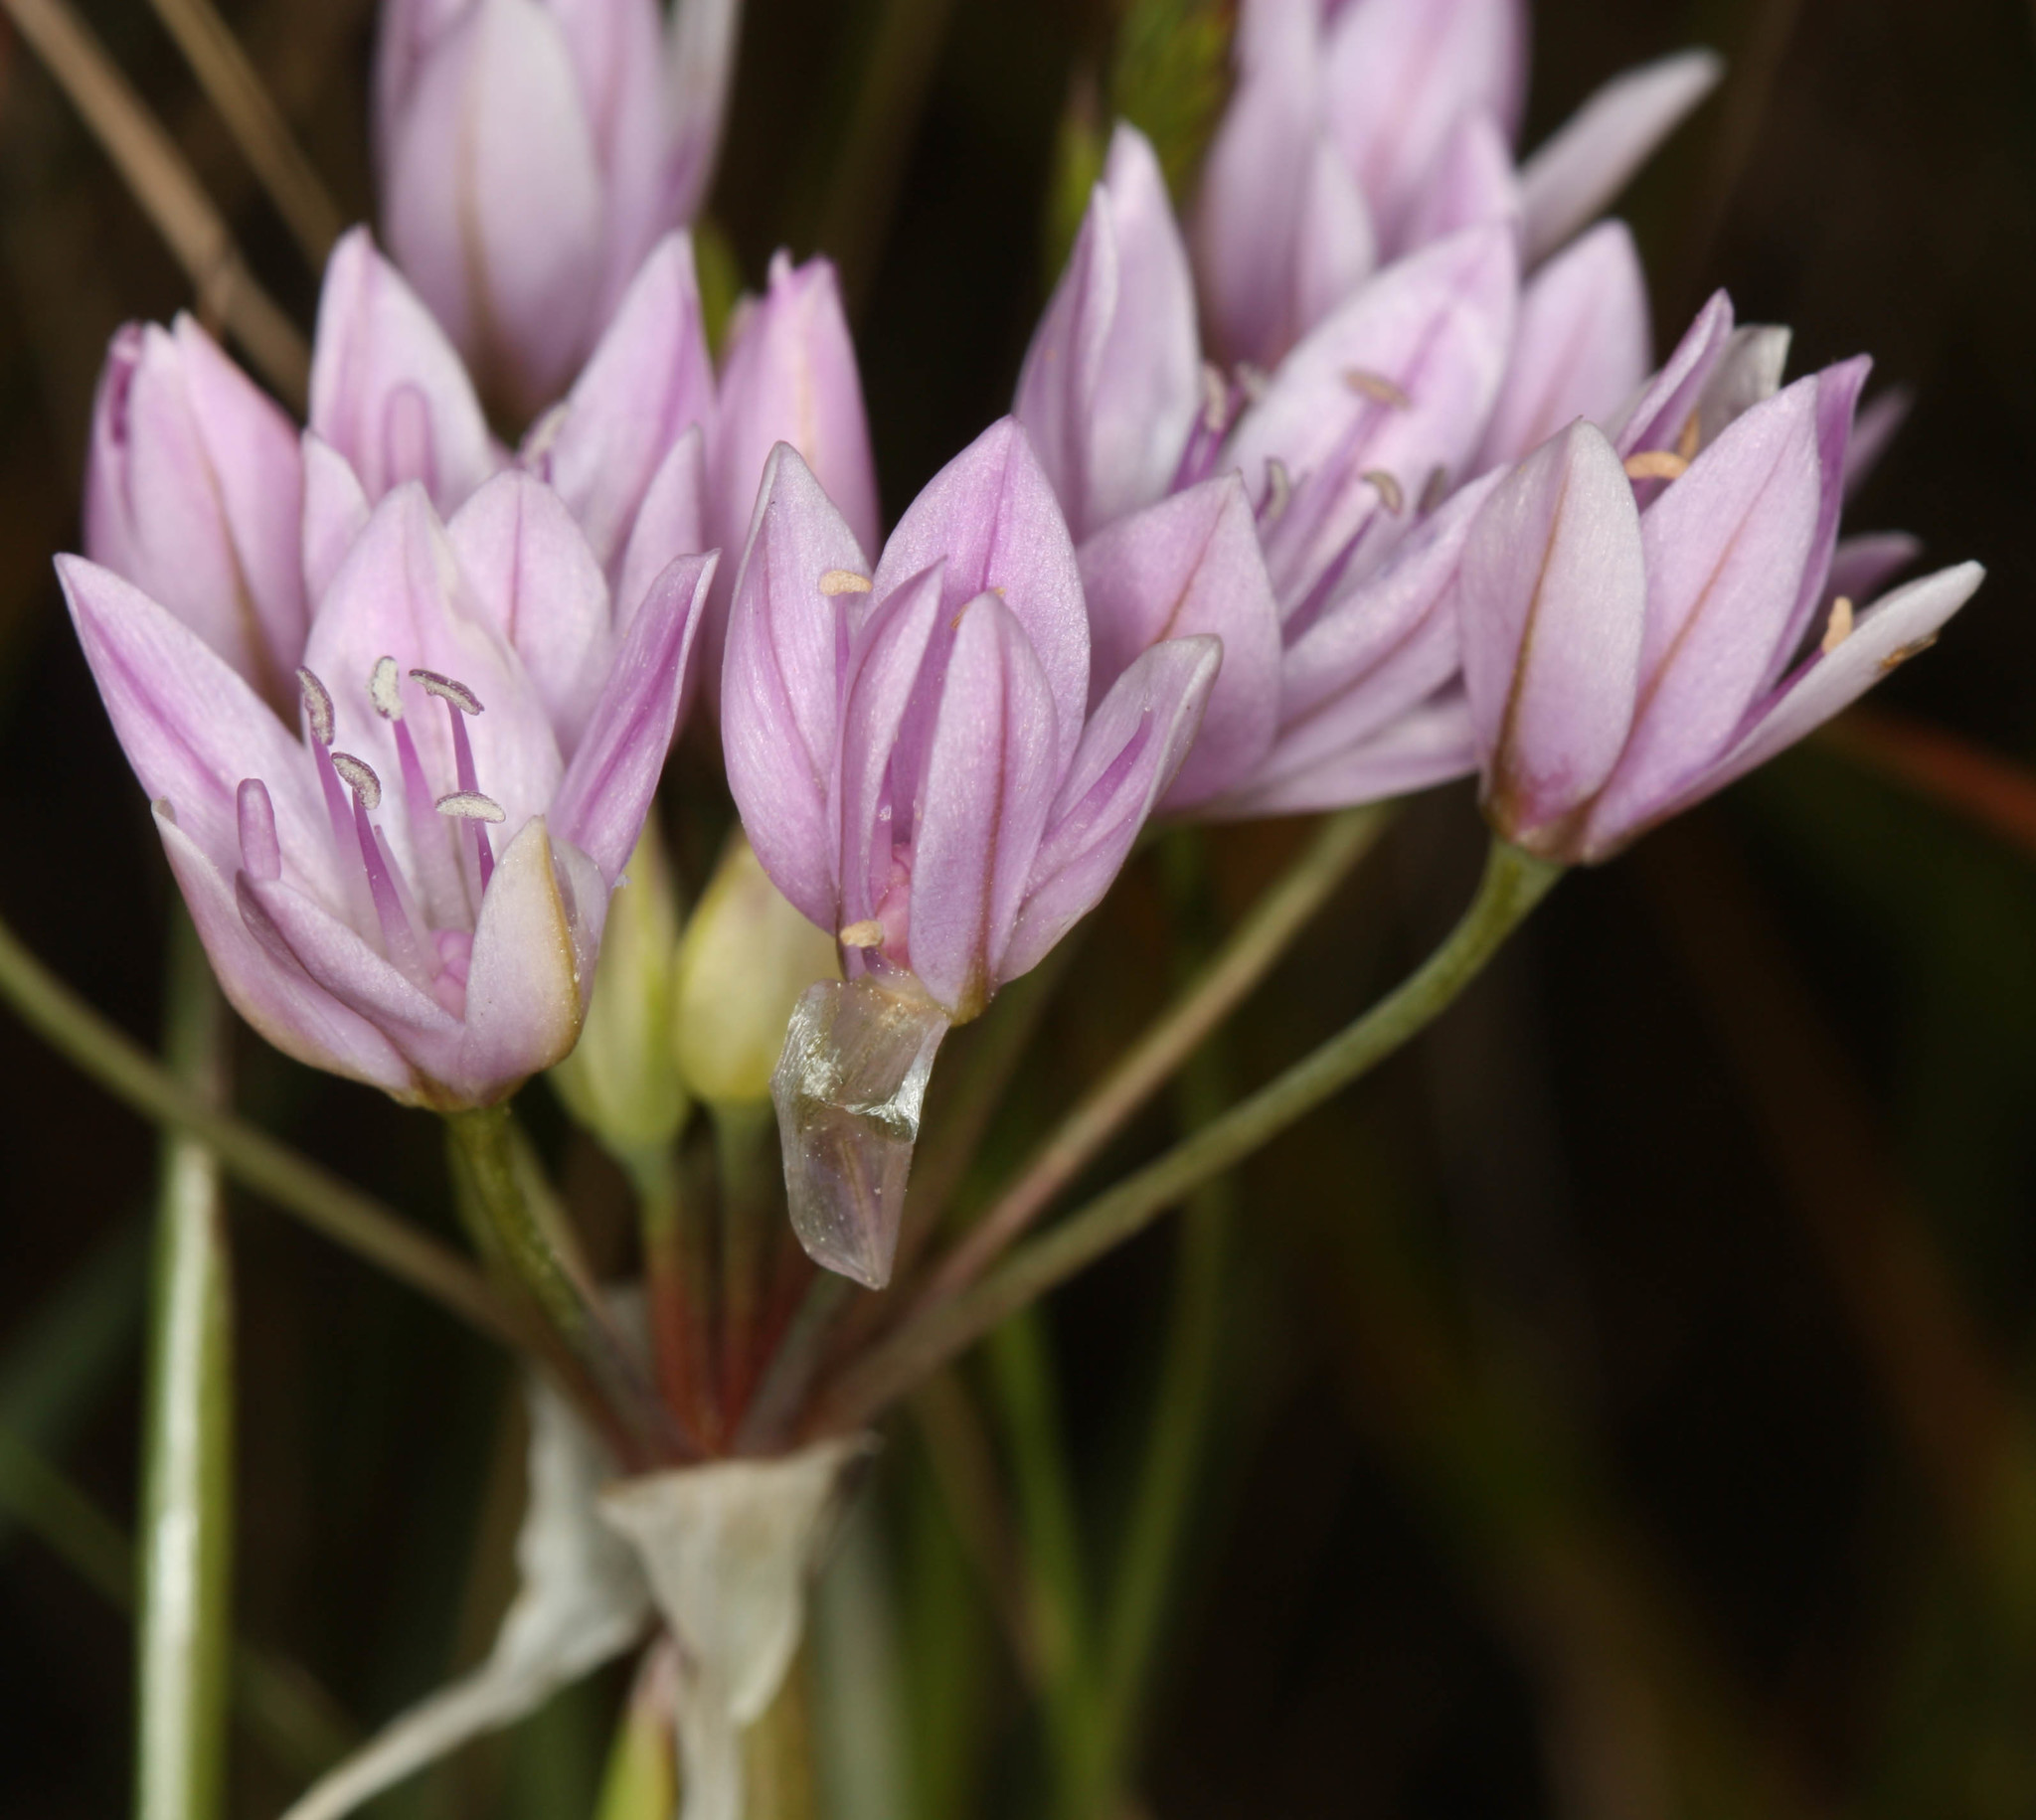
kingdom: Plantae
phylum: Tracheophyta
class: Liliopsida
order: Asparagales
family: Amaryllidaceae
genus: Allium
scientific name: Allium unifolium
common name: American garlic
